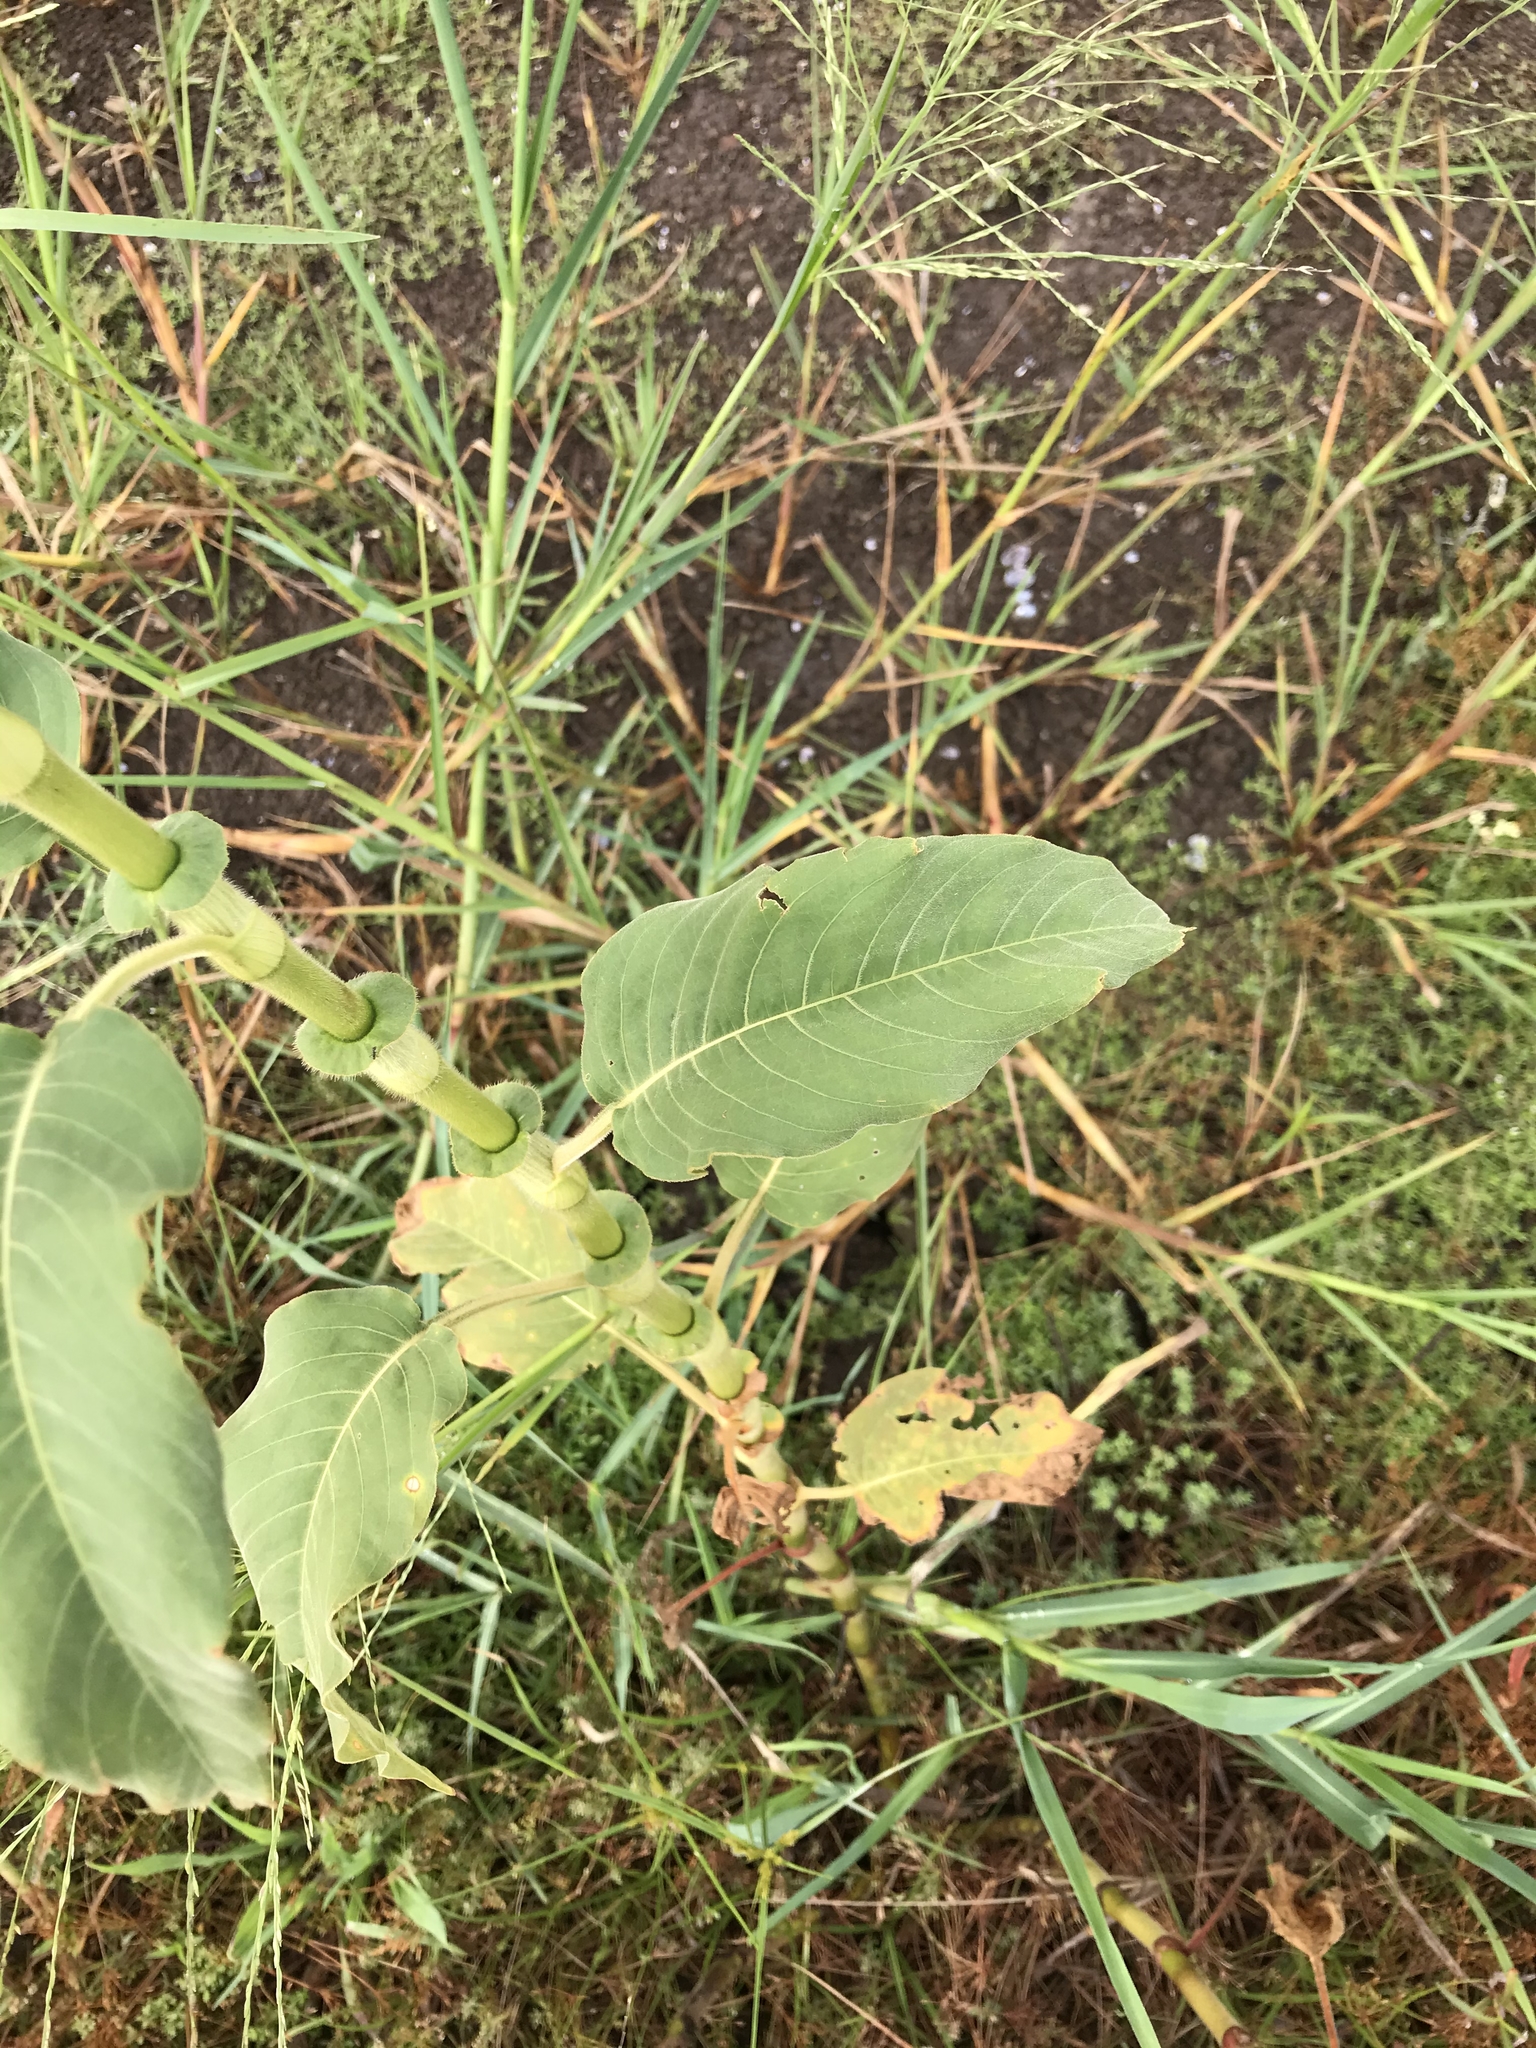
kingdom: Plantae
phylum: Tracheophyta
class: Magnoliopsida
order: Caryophyllales
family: Polygonaceae
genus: Persicaria
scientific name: Persicaria orientalis
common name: Kiss-me-over-the-garden-gate
